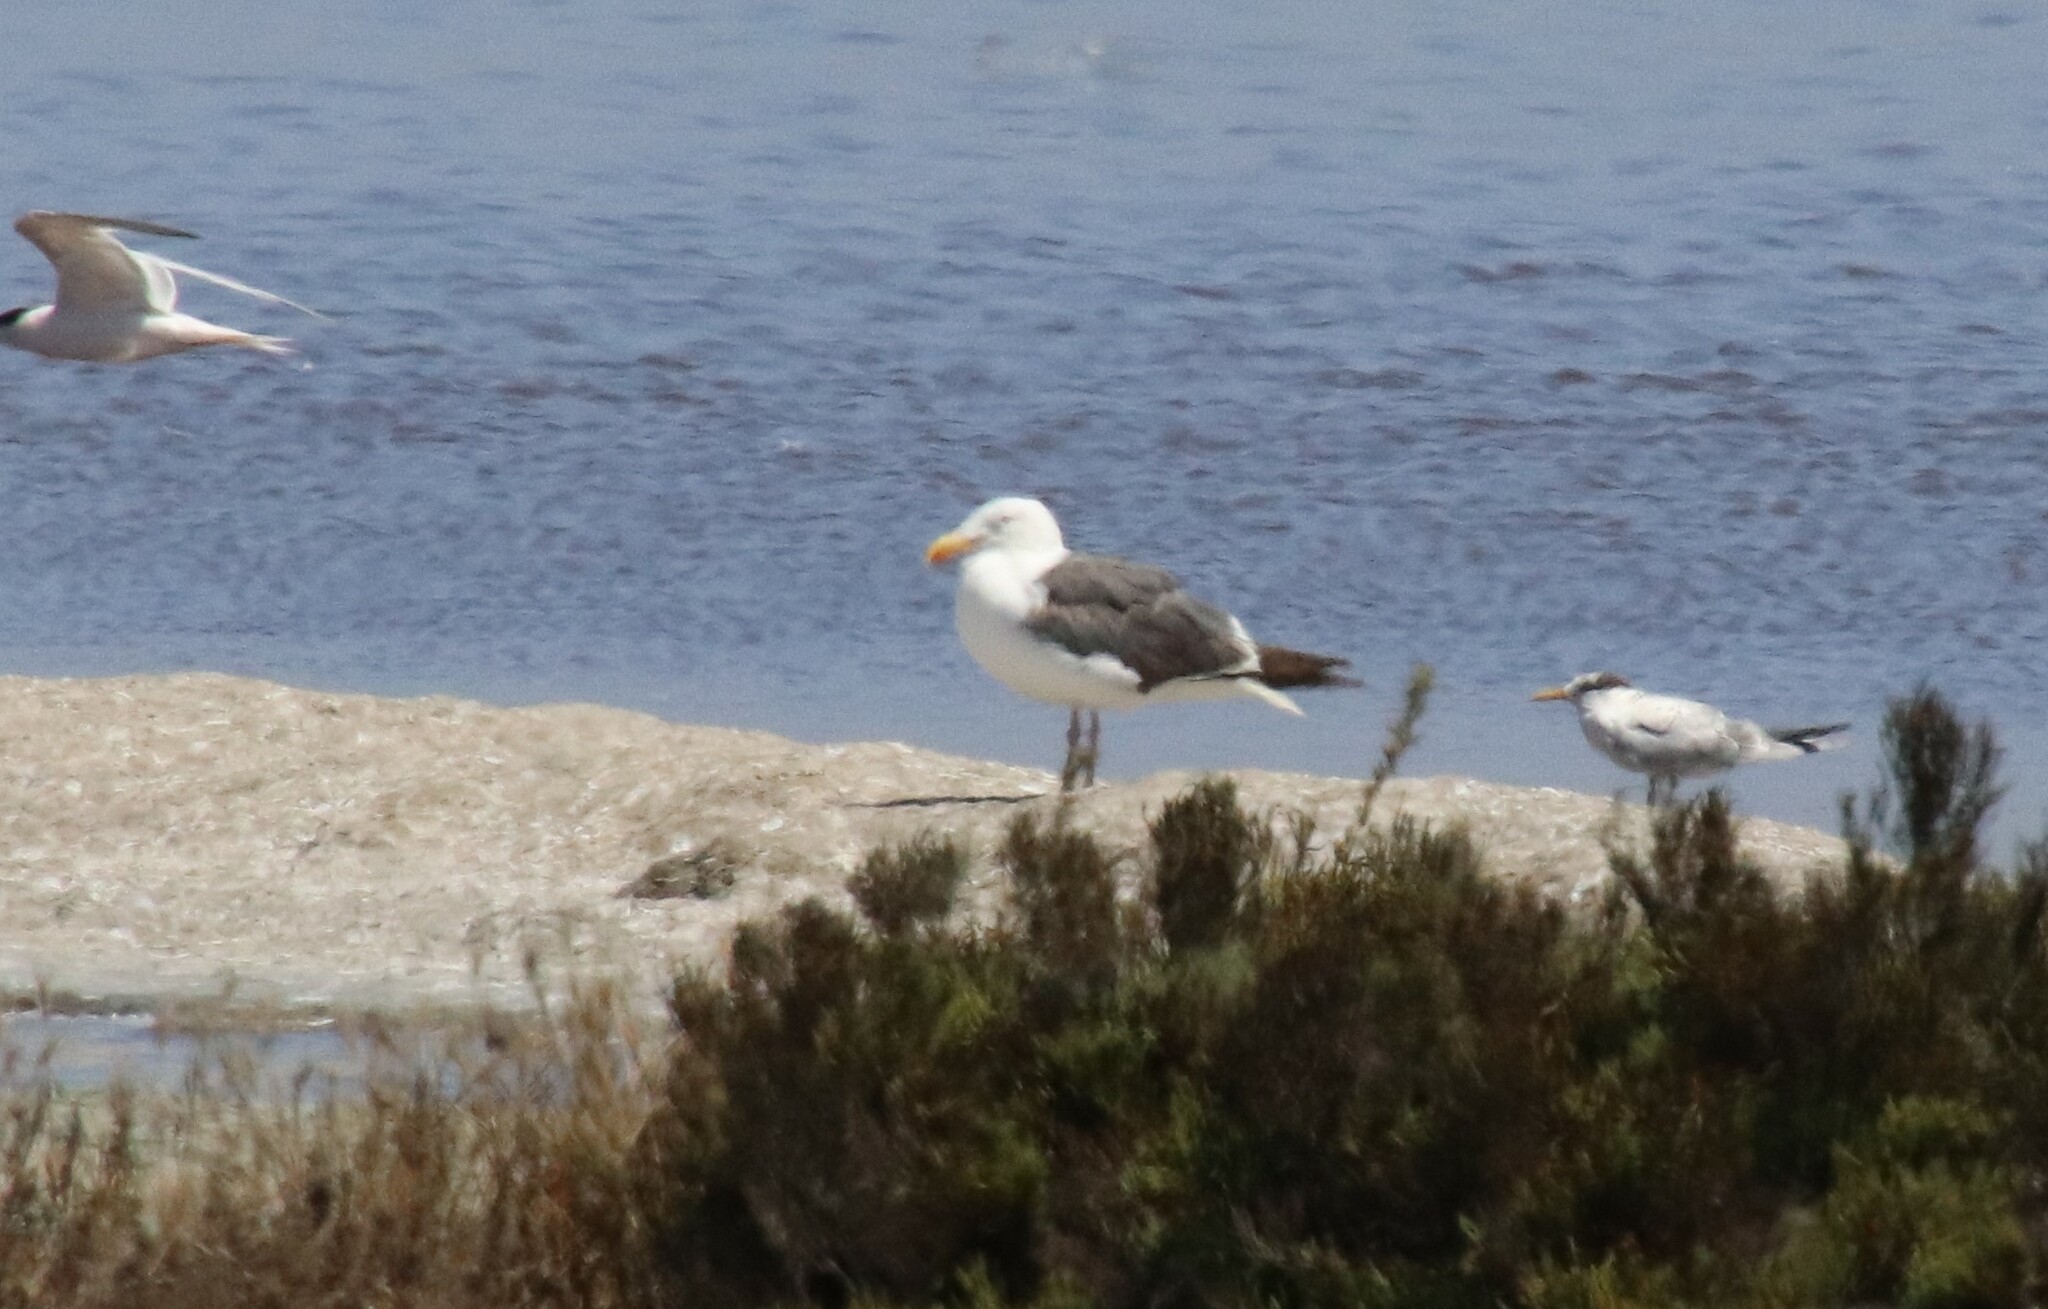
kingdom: Animalia
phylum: Chordata
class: Aves
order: Charadriiformes
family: Laridae
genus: Larus
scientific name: Larus occidentalis
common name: Western gull
